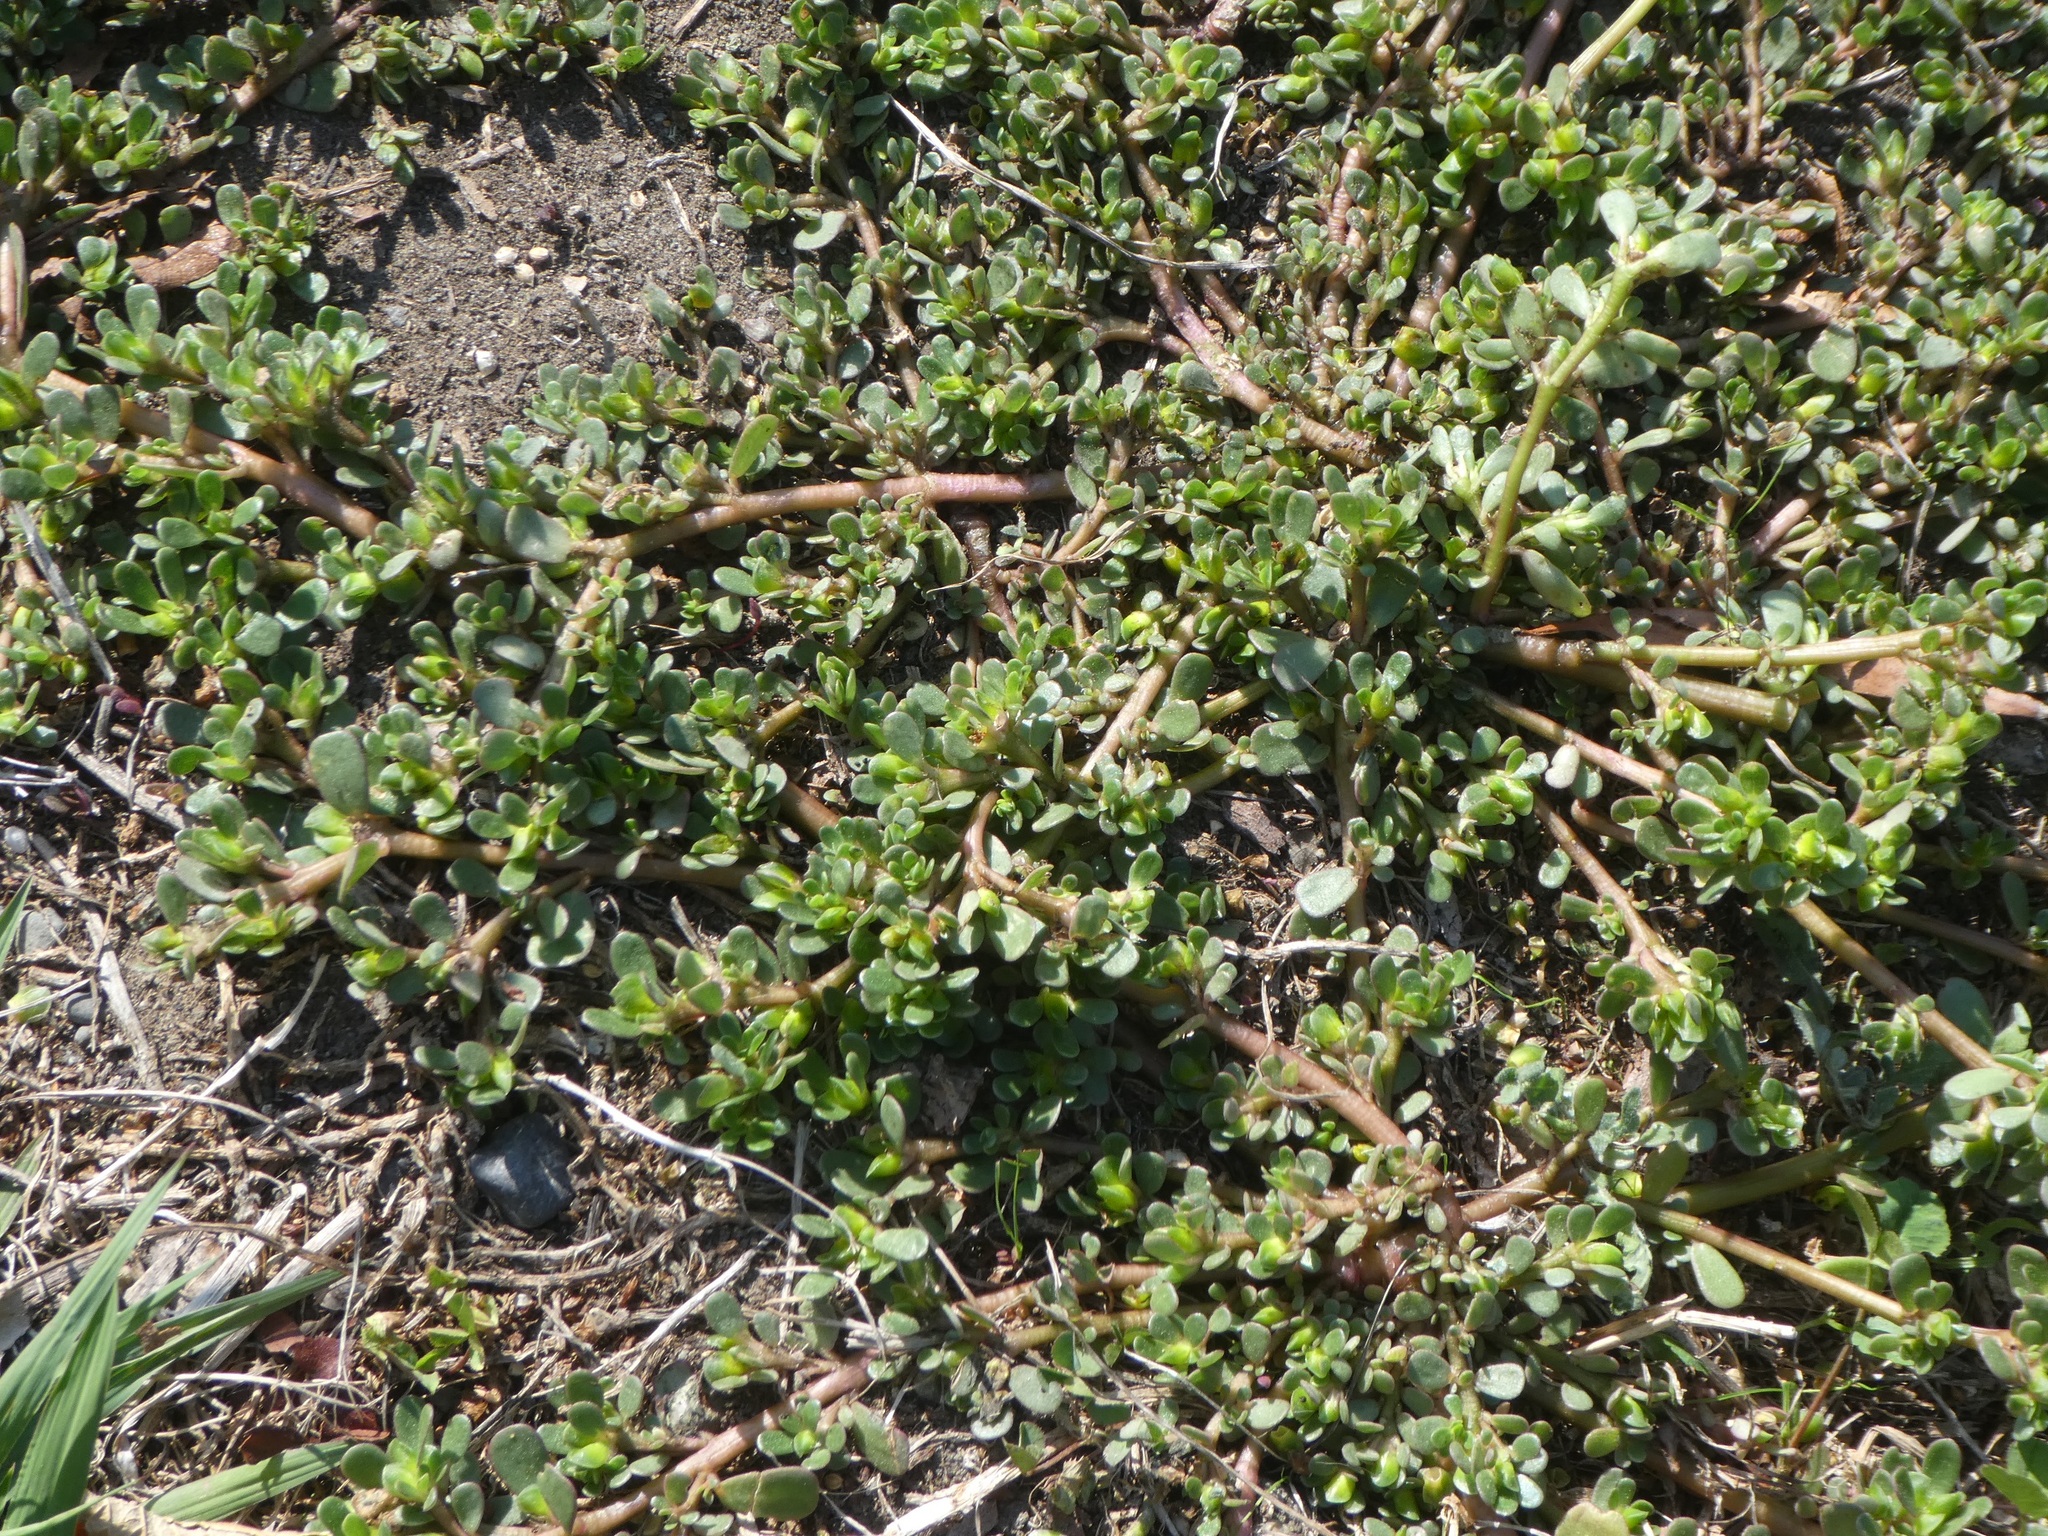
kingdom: Plantae
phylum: Tracheophyta
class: Magnoliopsida
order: Caryophyllales
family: Portulacaceae
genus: Portulaca
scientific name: Portulaca oleracea
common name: Common purslane
